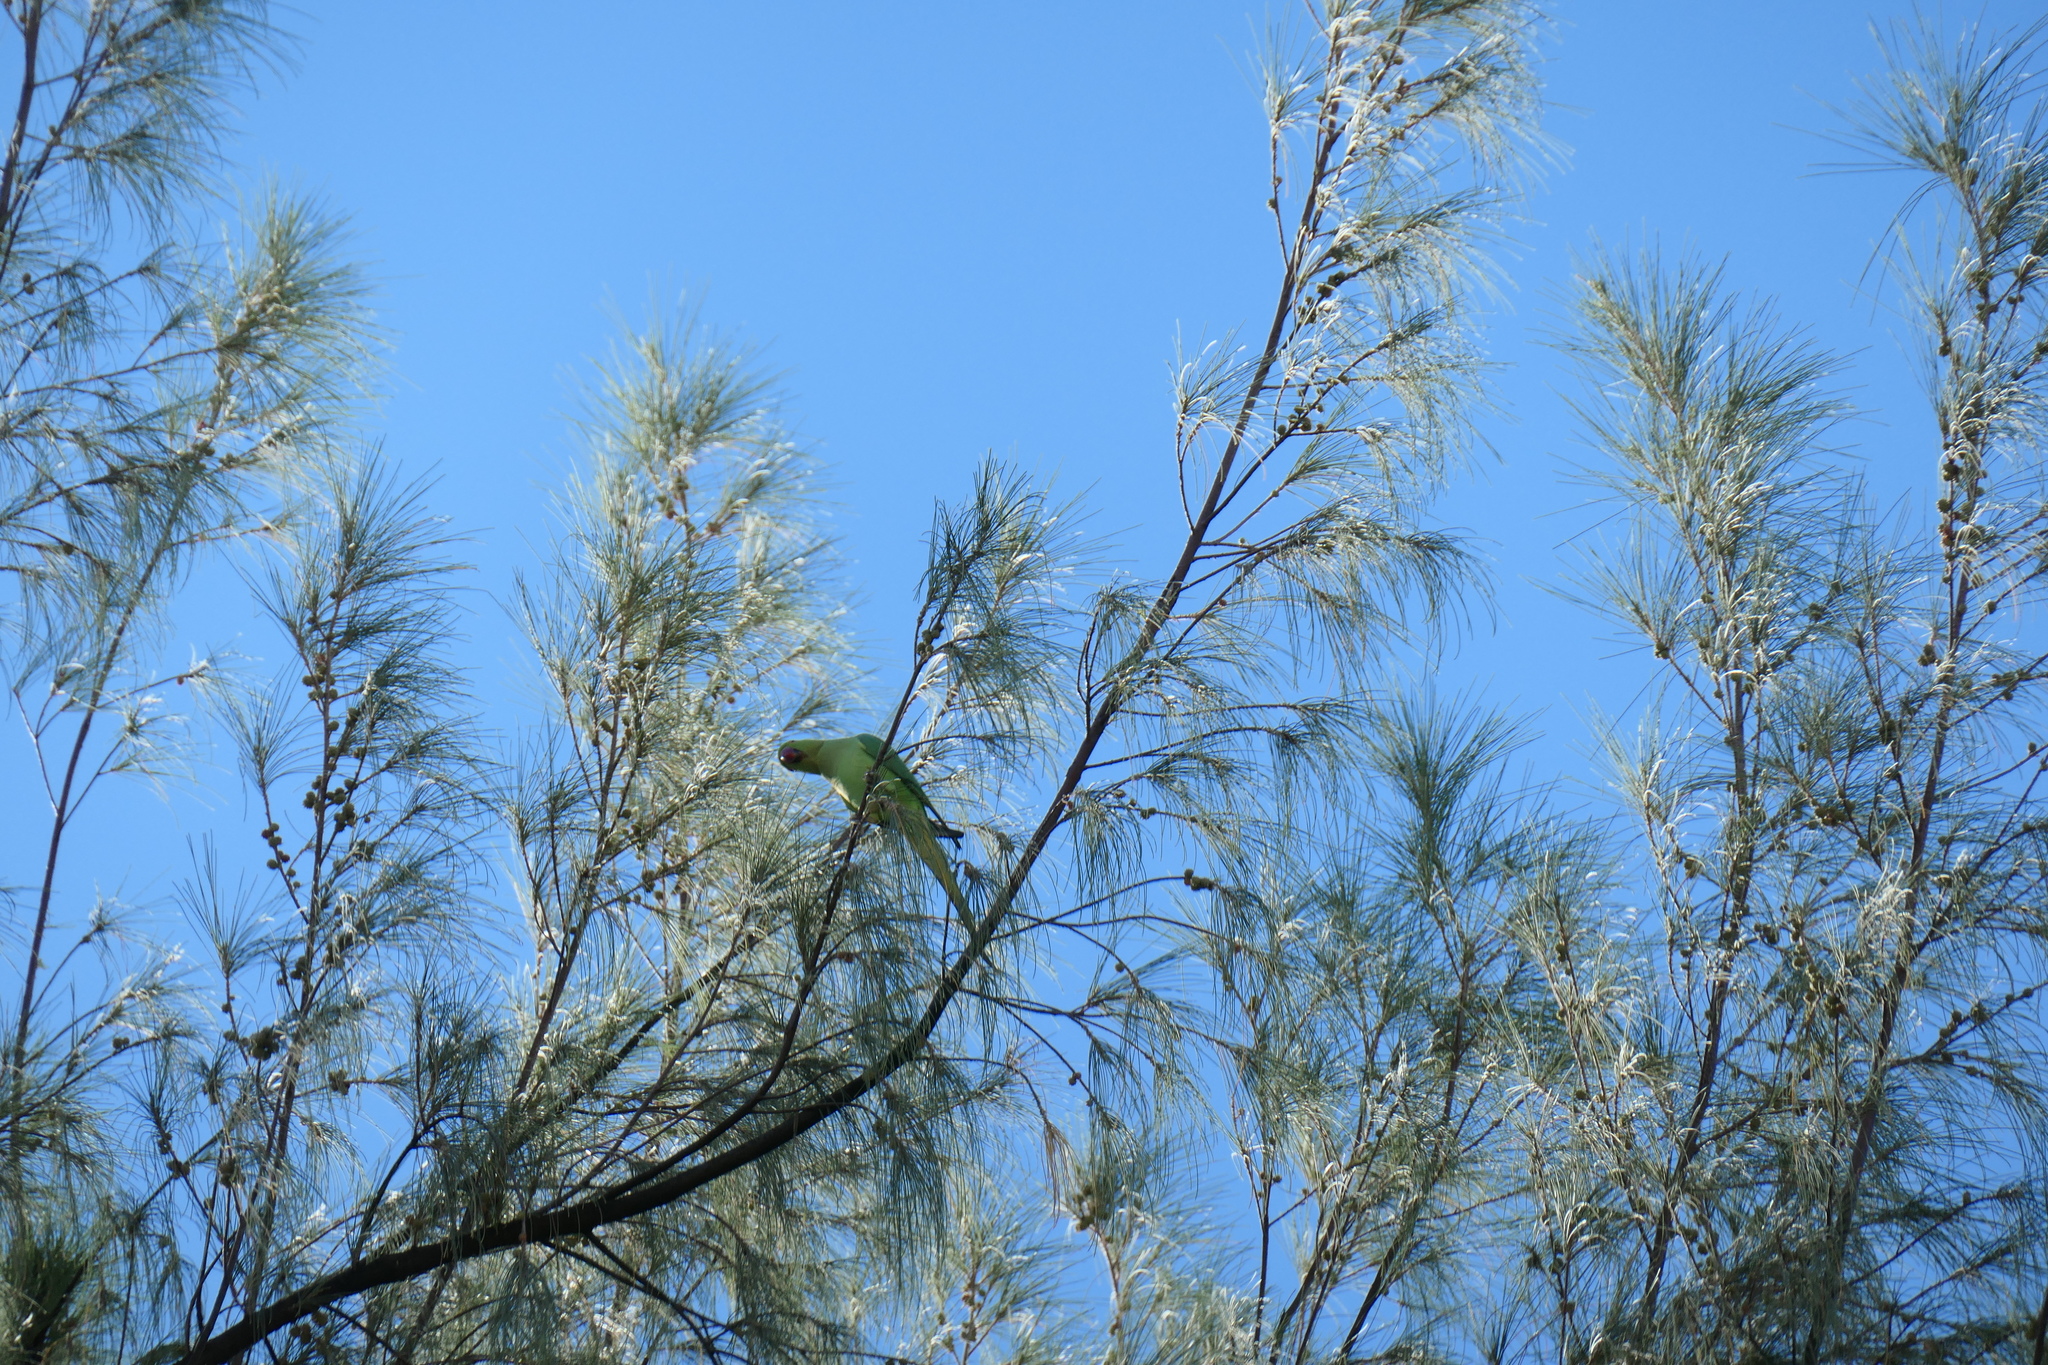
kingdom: Animalia
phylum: Chordata
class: Aves
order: Psittaciformes
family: Psittacidae
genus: Psittacula
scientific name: Psittacula krameri
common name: Rose-ringed parakeet
